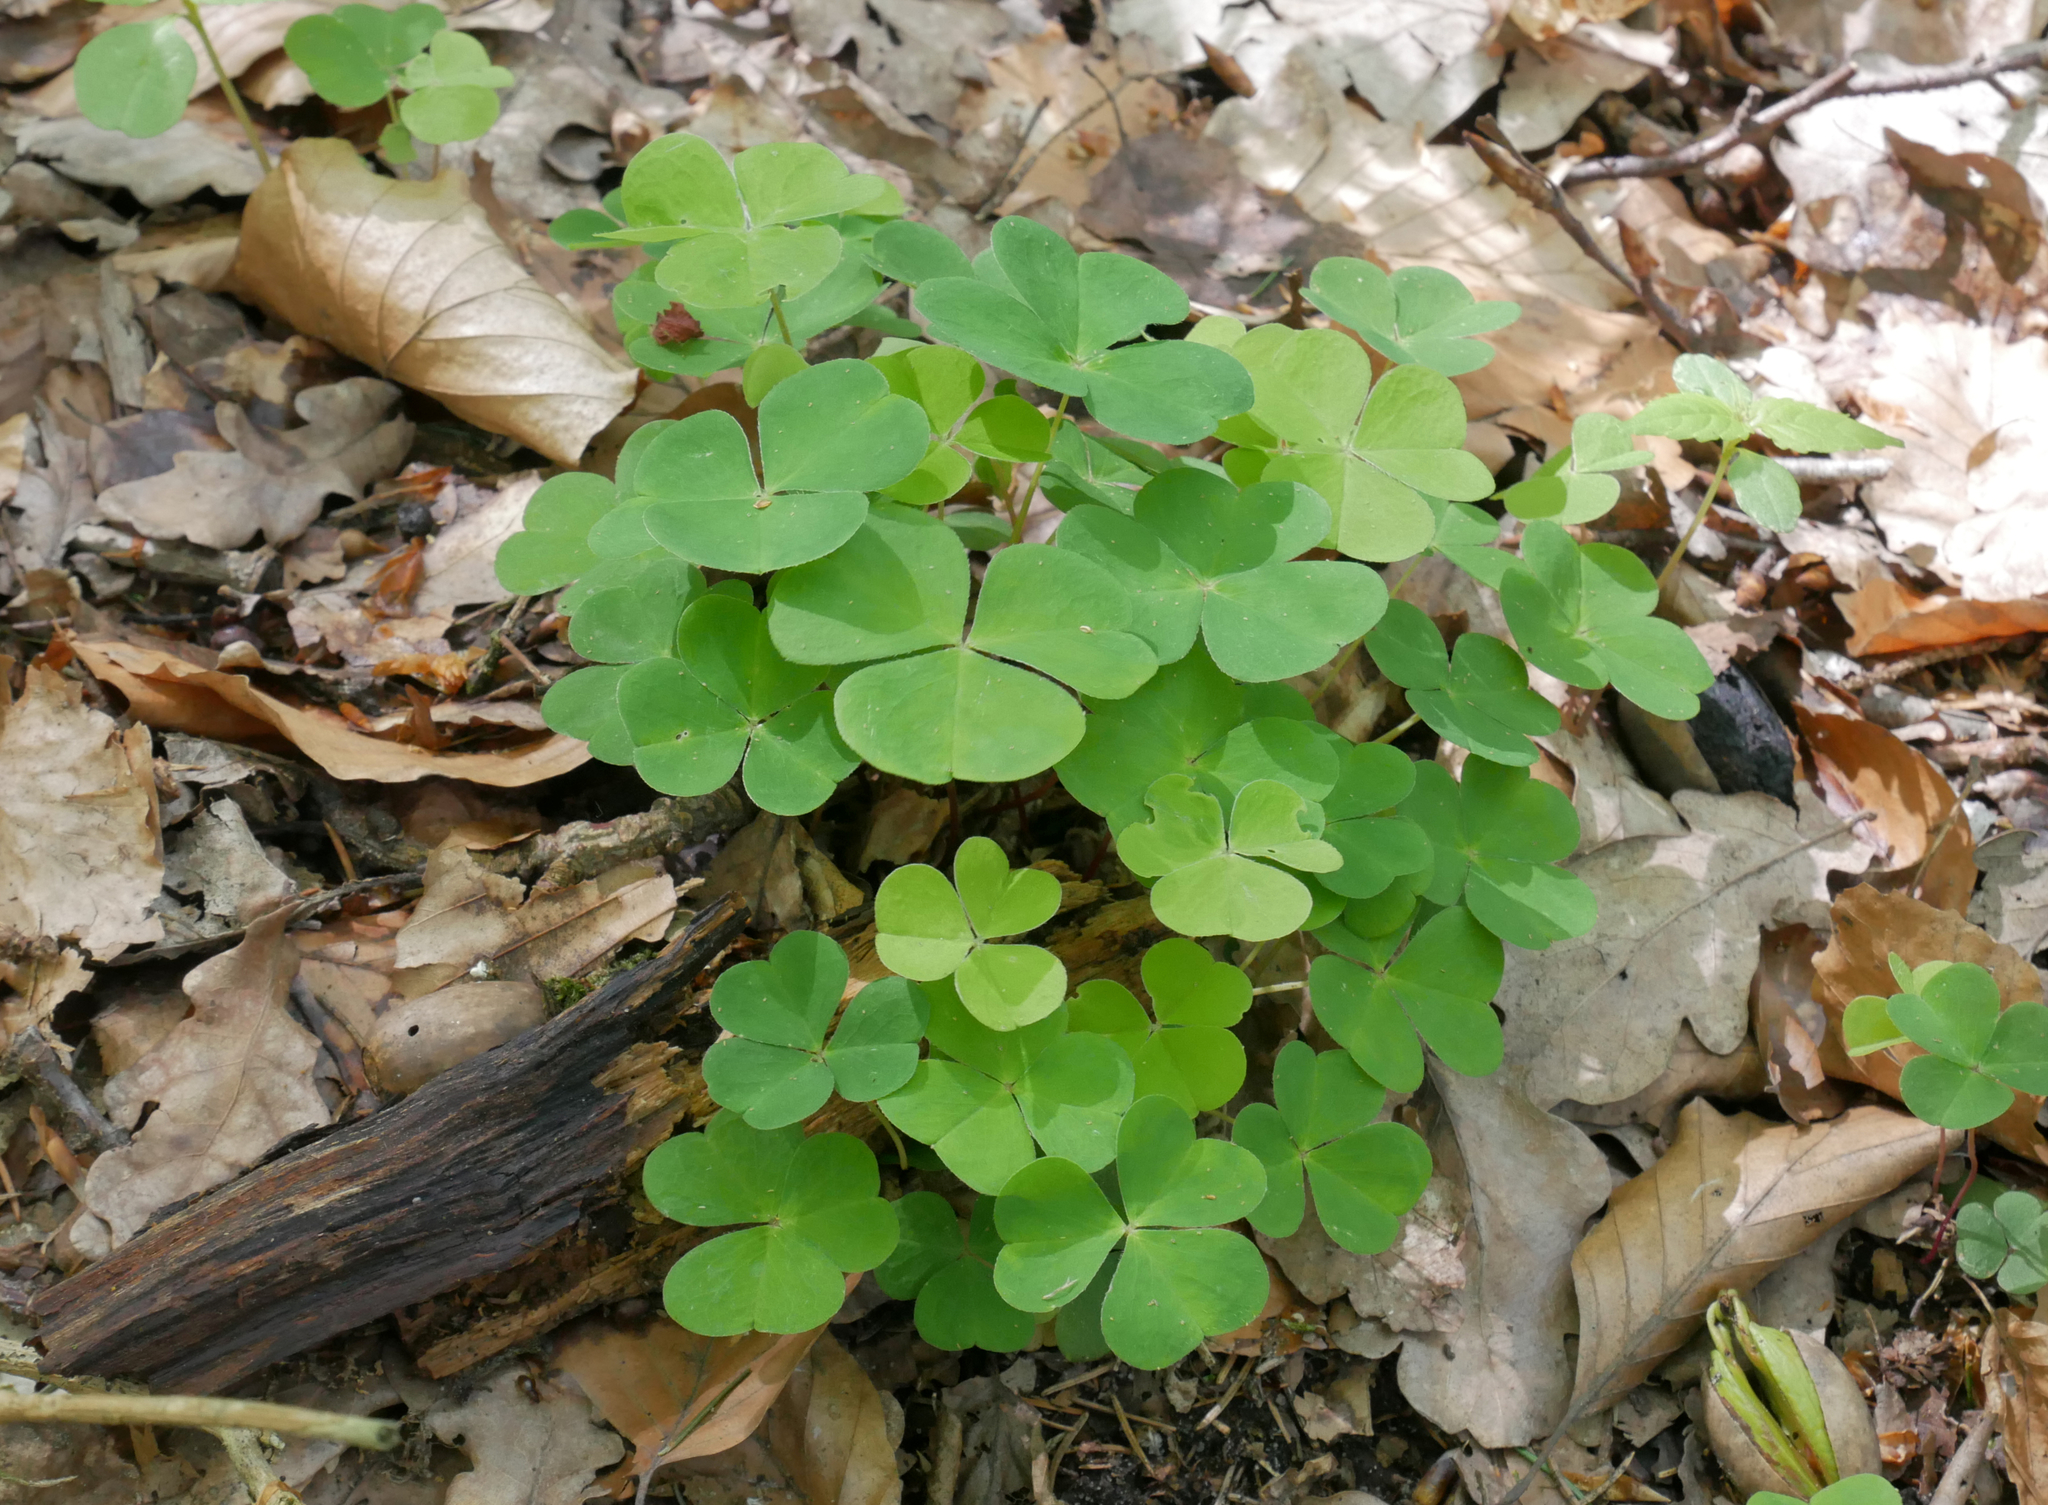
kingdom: Plantae
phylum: Tracheophyta
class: Magnoliopsida
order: Oxalidales
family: Oxalidaceae
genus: Oxalis
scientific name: Oxalis acetosella
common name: Wood-sorrel
